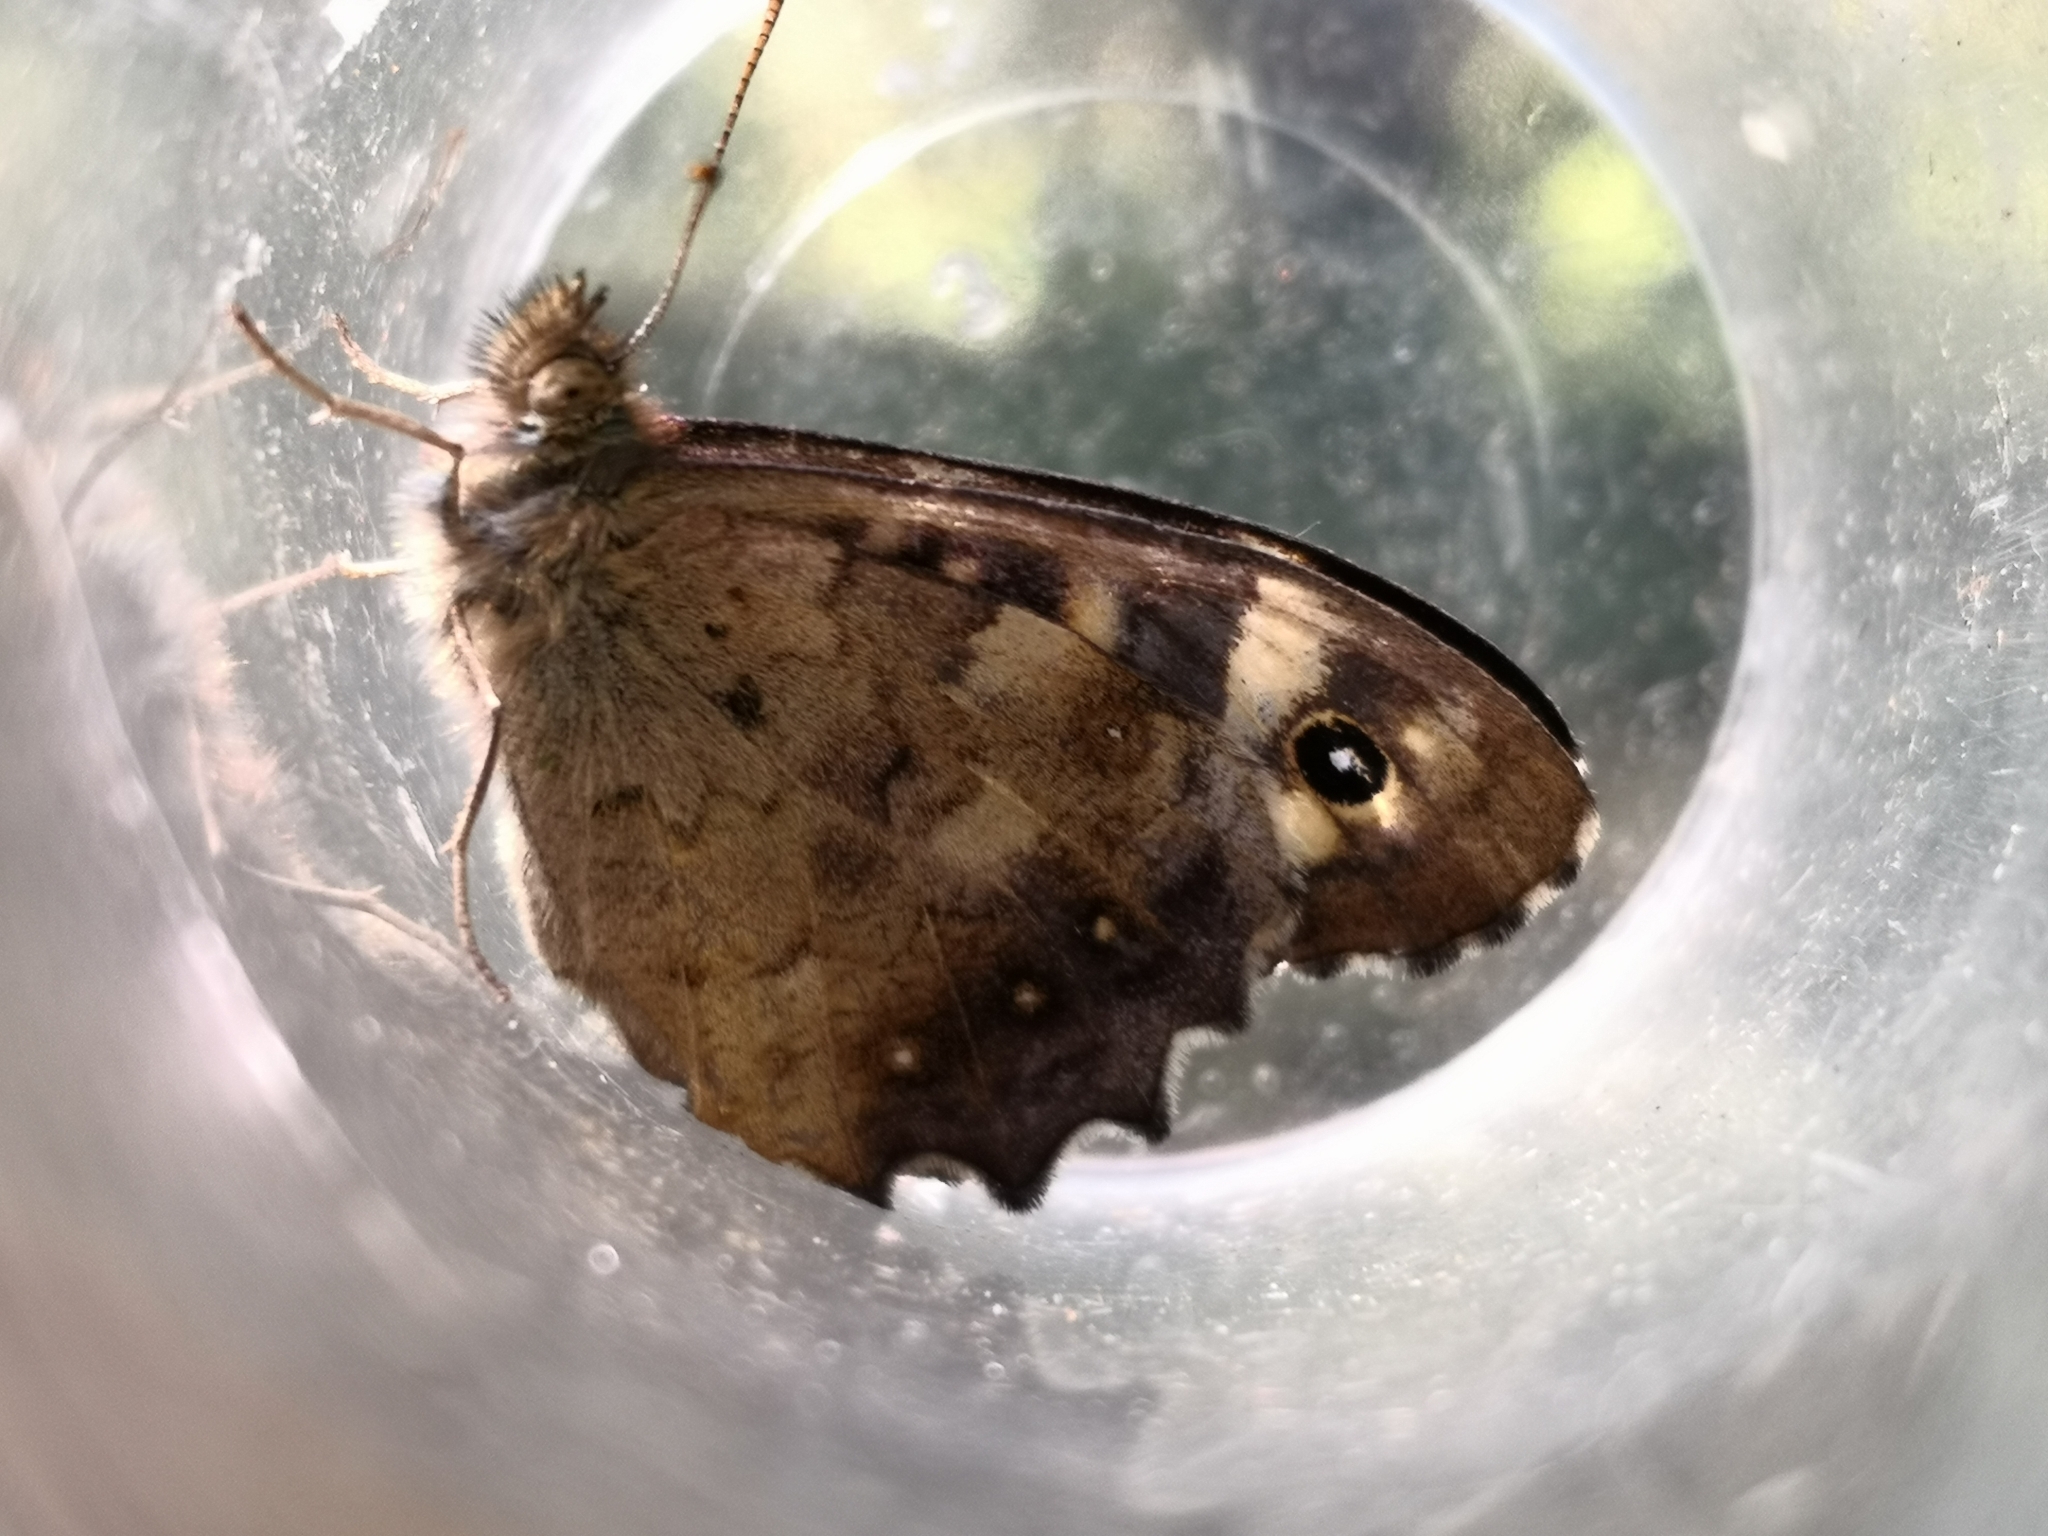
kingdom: Animalia
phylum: Arthropoda
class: Insecta
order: Lepidoptera
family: Nymphalidae
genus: Pararge
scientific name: Pararge aegeria
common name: Speckled wood
